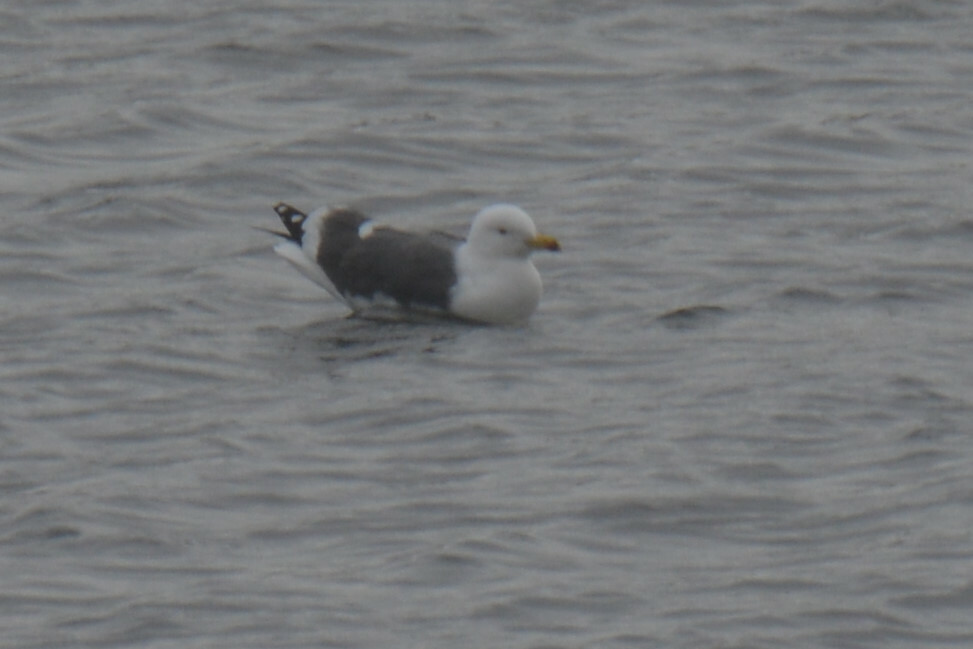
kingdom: Animalia
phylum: Chordata
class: Aves
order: Charadriiformes
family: Laridae
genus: Larus
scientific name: Larus fuscus
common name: Lesser black-backed gull
